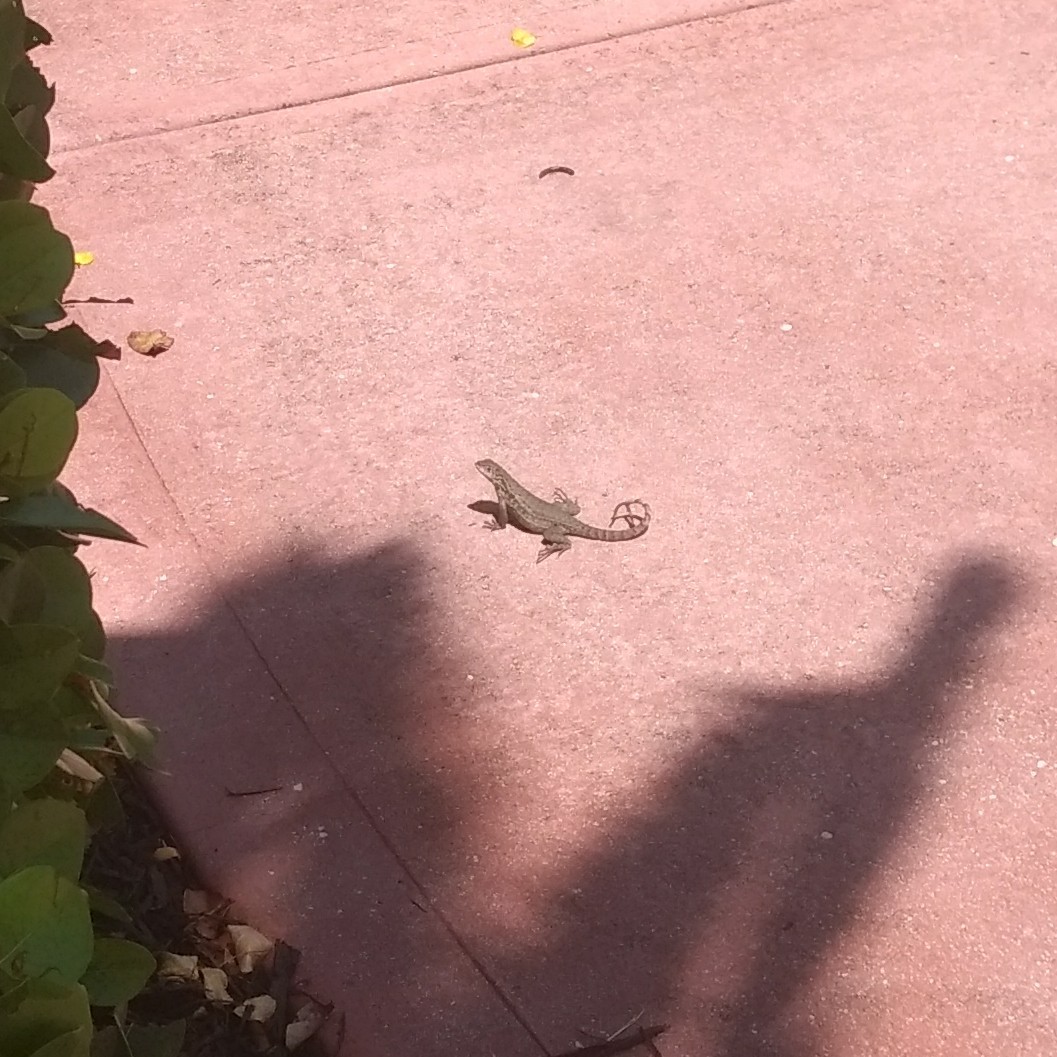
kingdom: Animalia
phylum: Chordata
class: Squamata
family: Leiocephalidae
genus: Leiocephalus
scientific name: Leiocephalus carinatus
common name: Northern curly-tailed lizard
